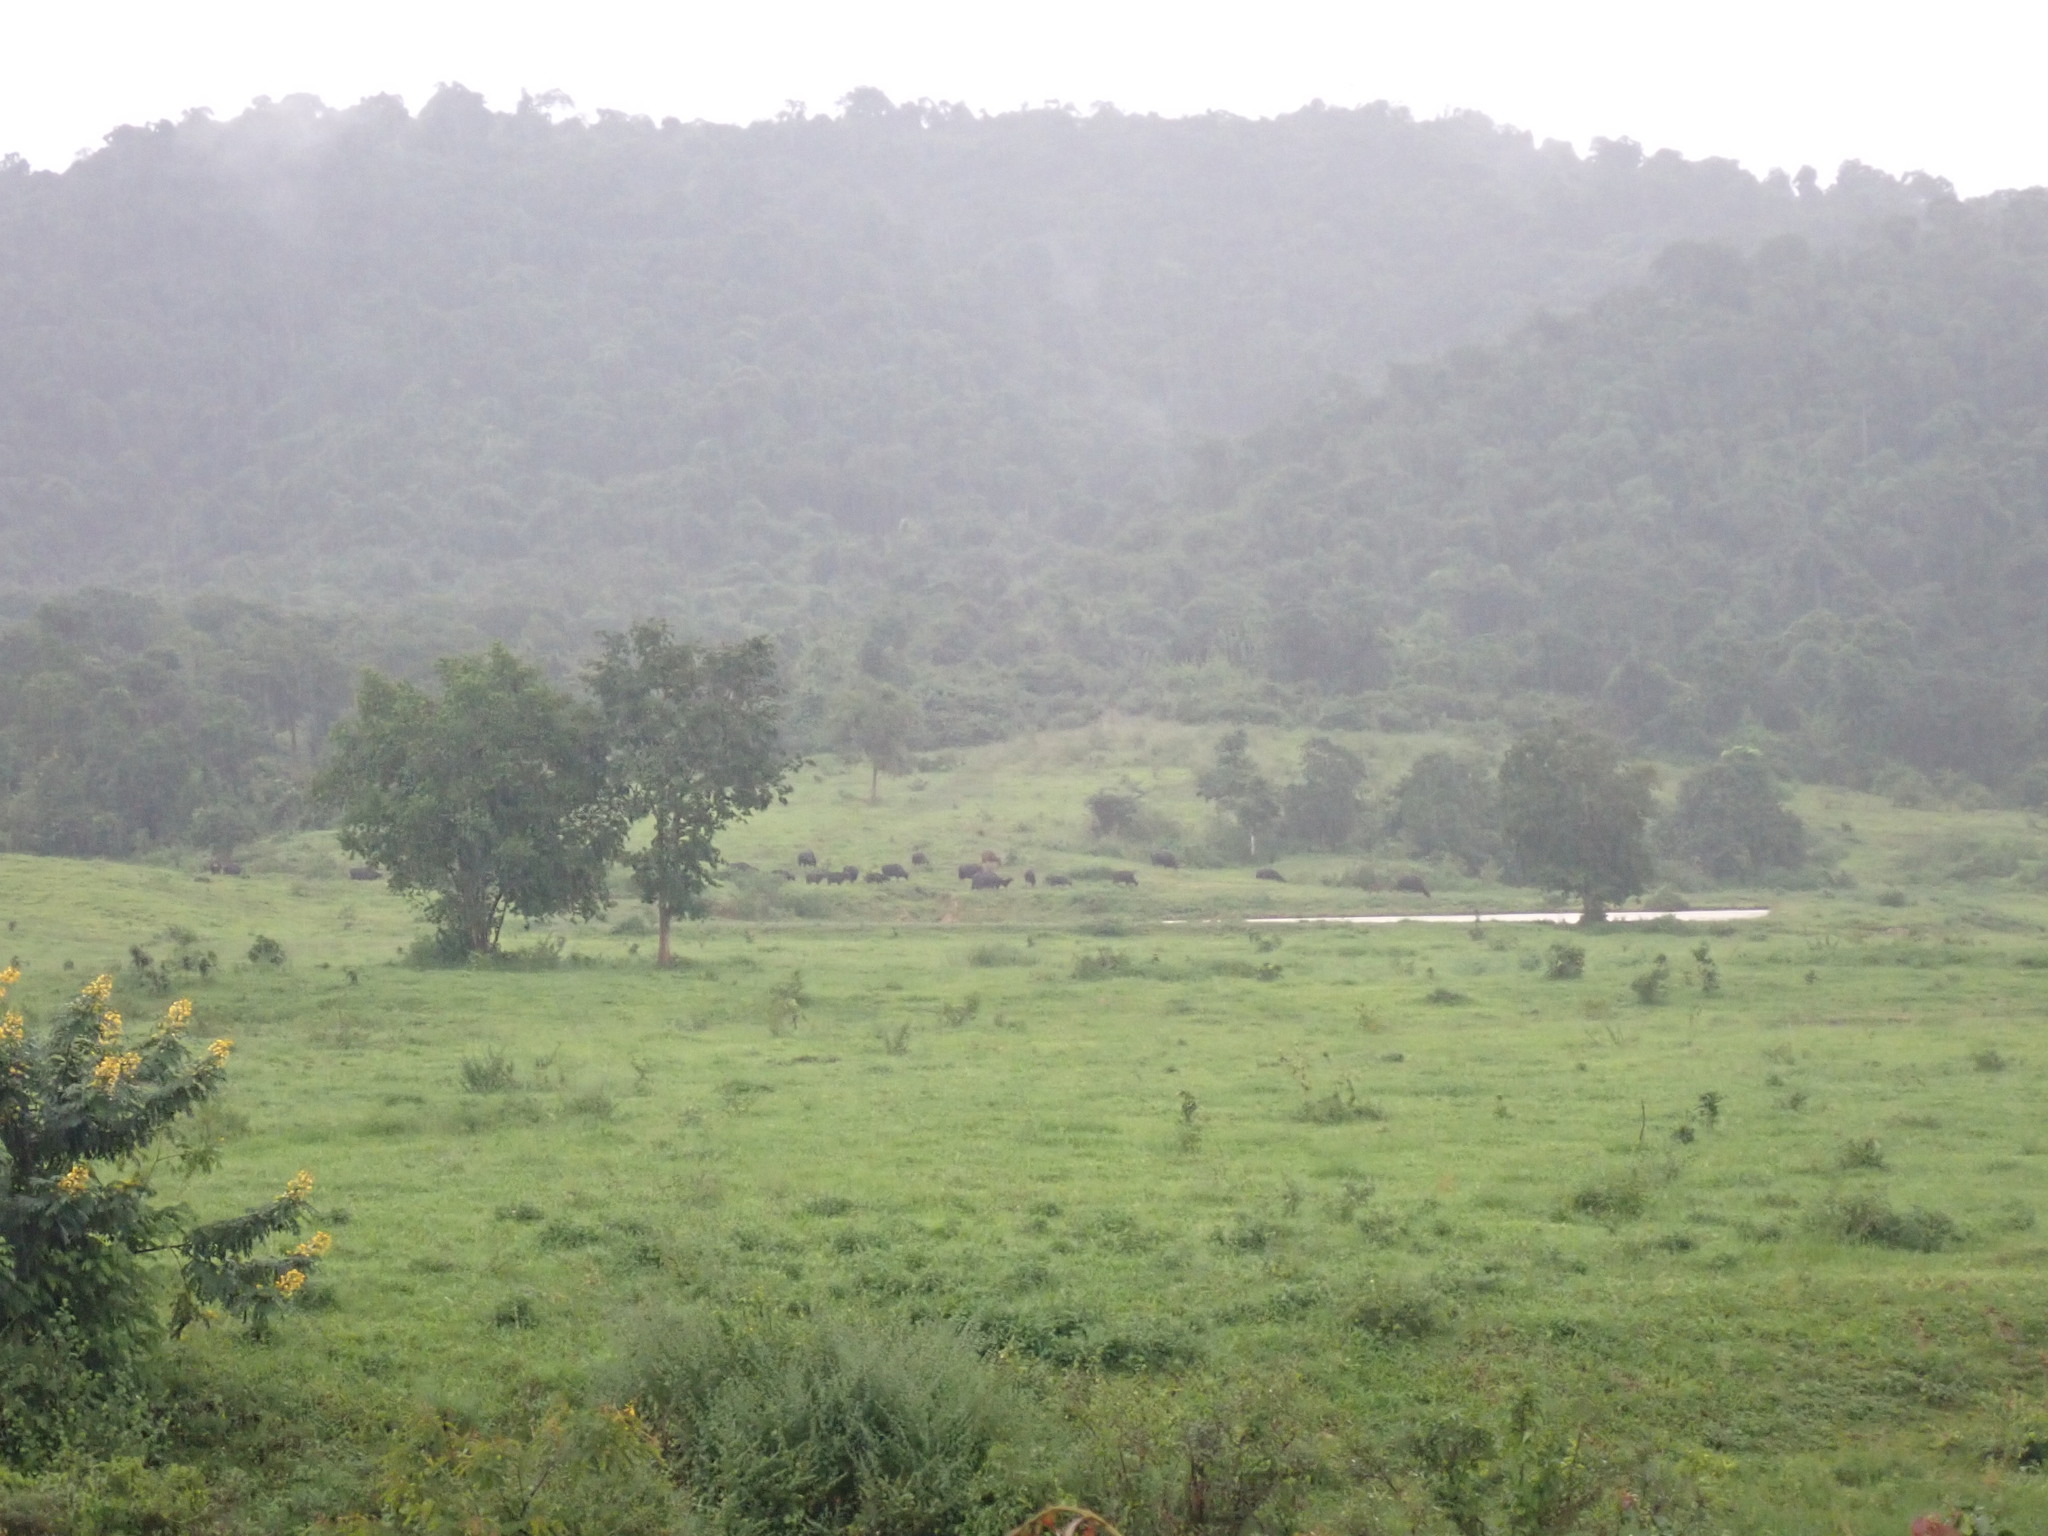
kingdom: Animalia
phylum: Chordata
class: Mammalia
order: Artiodactyla
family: Bovidae
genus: Bos
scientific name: Bos frontalis
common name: Gaur
